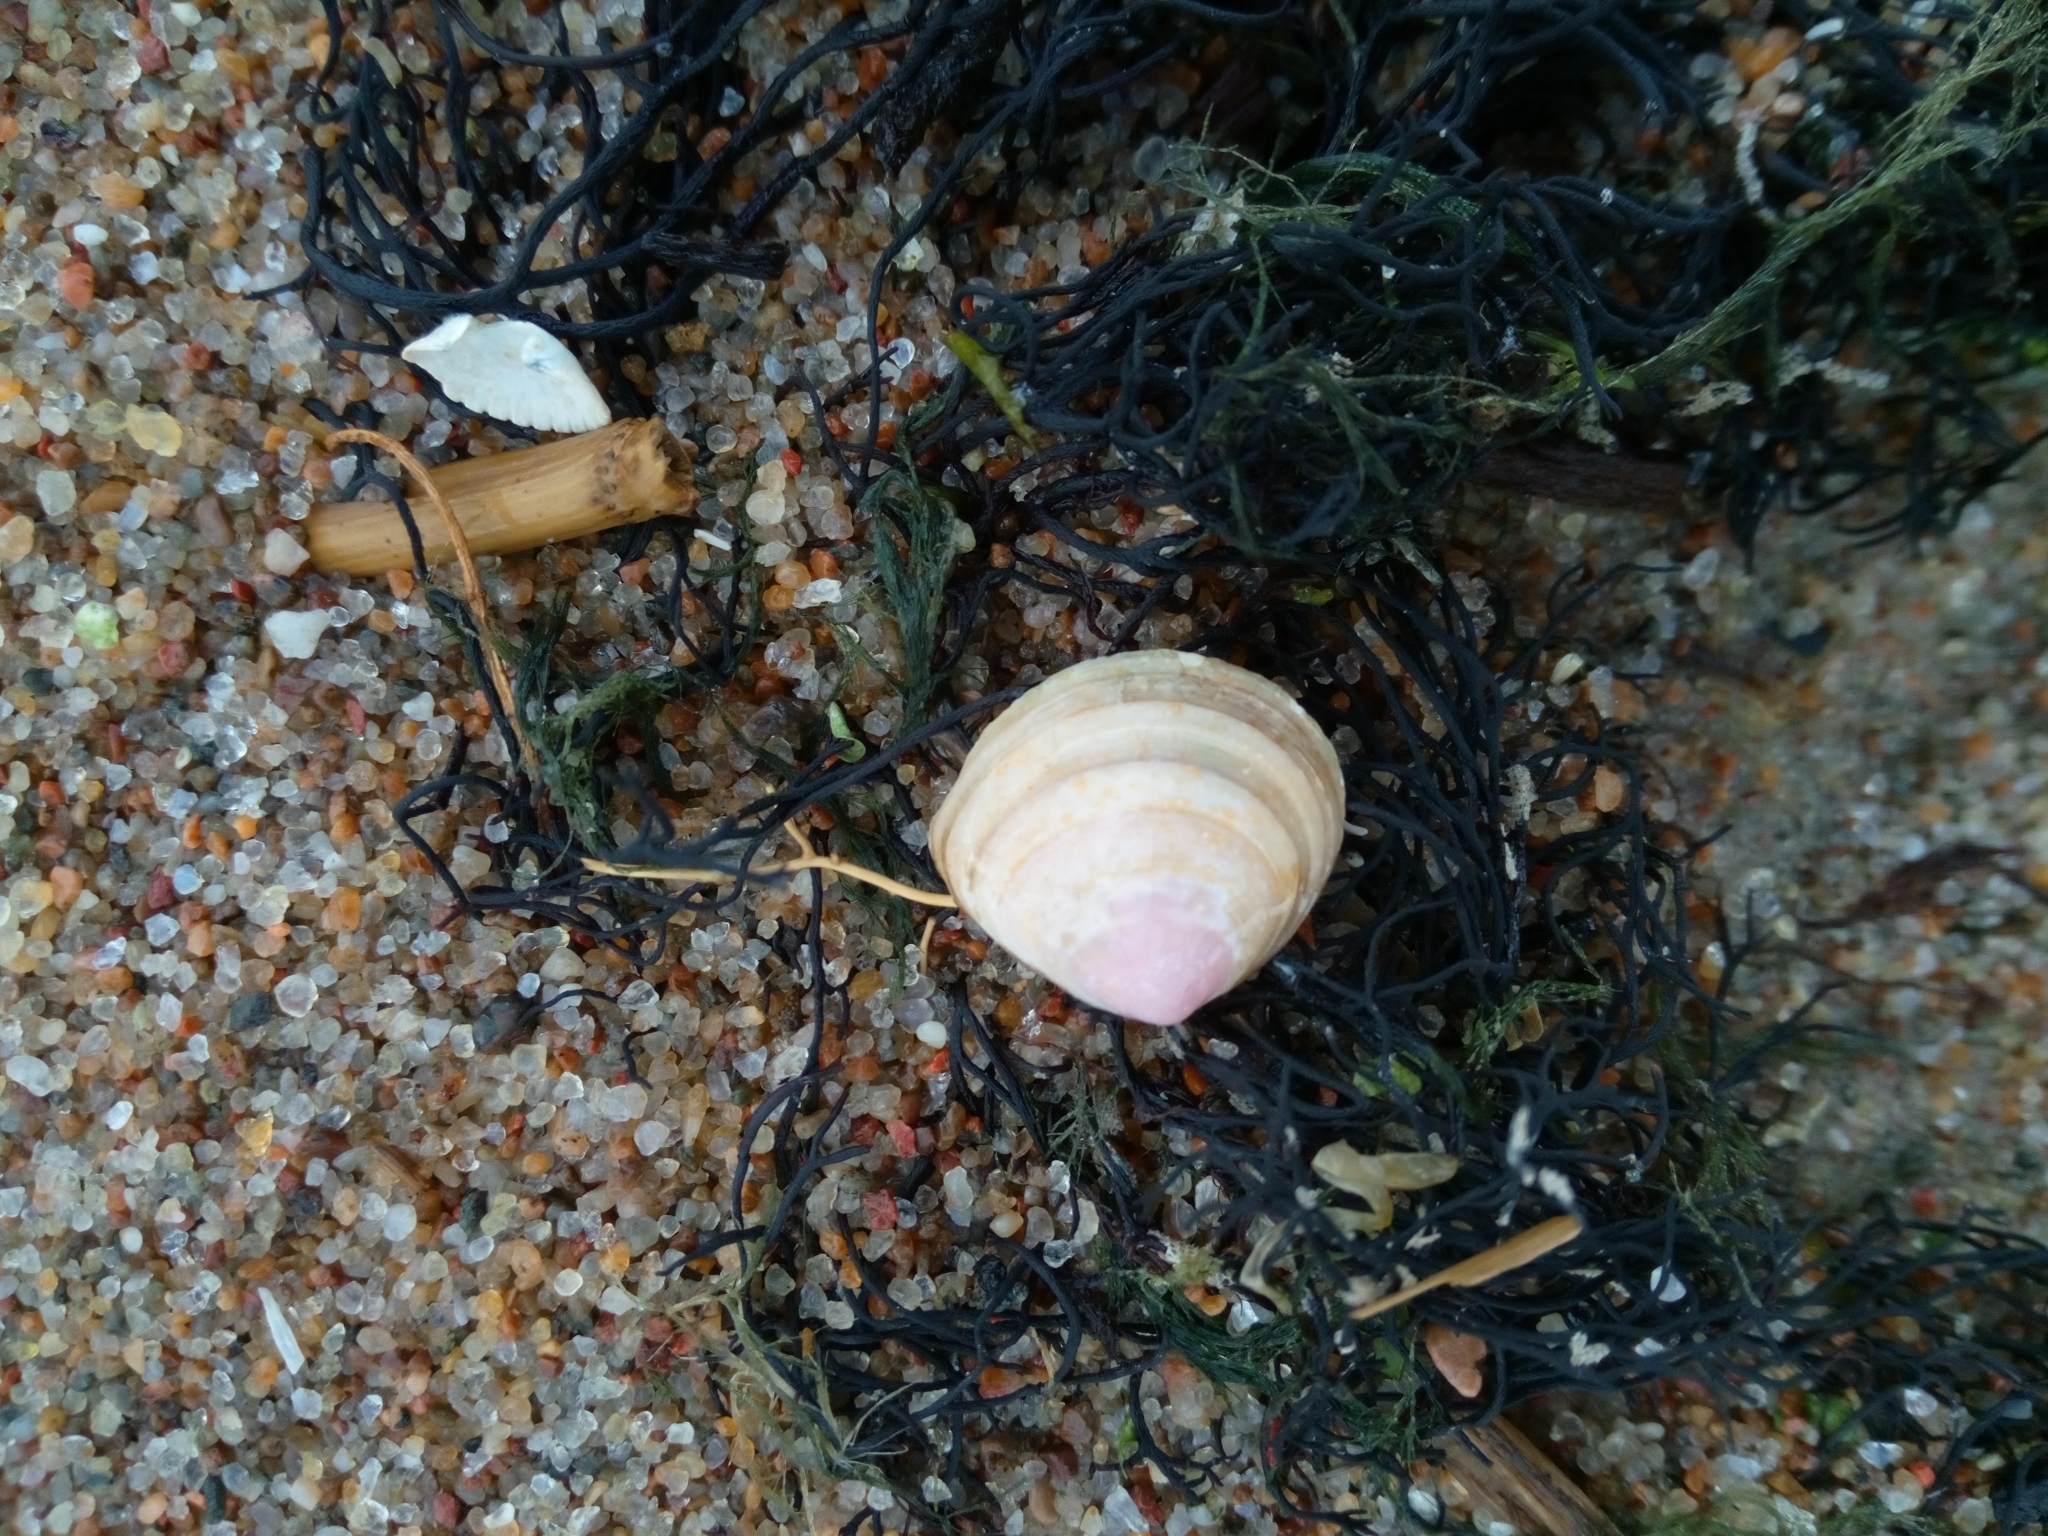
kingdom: Animalia
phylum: Mollusca
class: Bivalvia
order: Cardiida
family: Tellinidae
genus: Macoma
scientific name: Macoma balthica
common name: Baltic tellin
